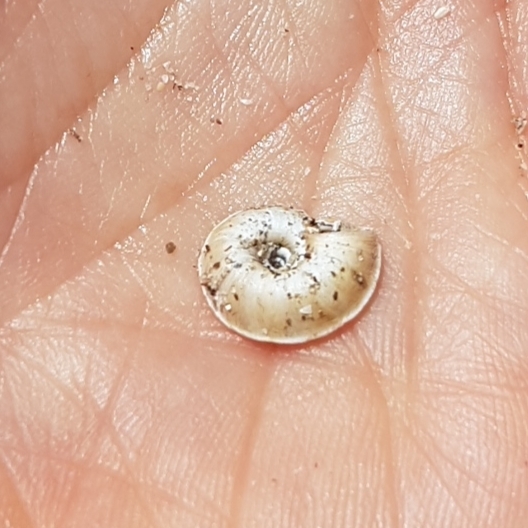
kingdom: Animalia
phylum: Mollusca
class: Gastropoda
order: Stylommatophora
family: Geomitridae
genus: Xerosecta
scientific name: Xerosecta explanata
